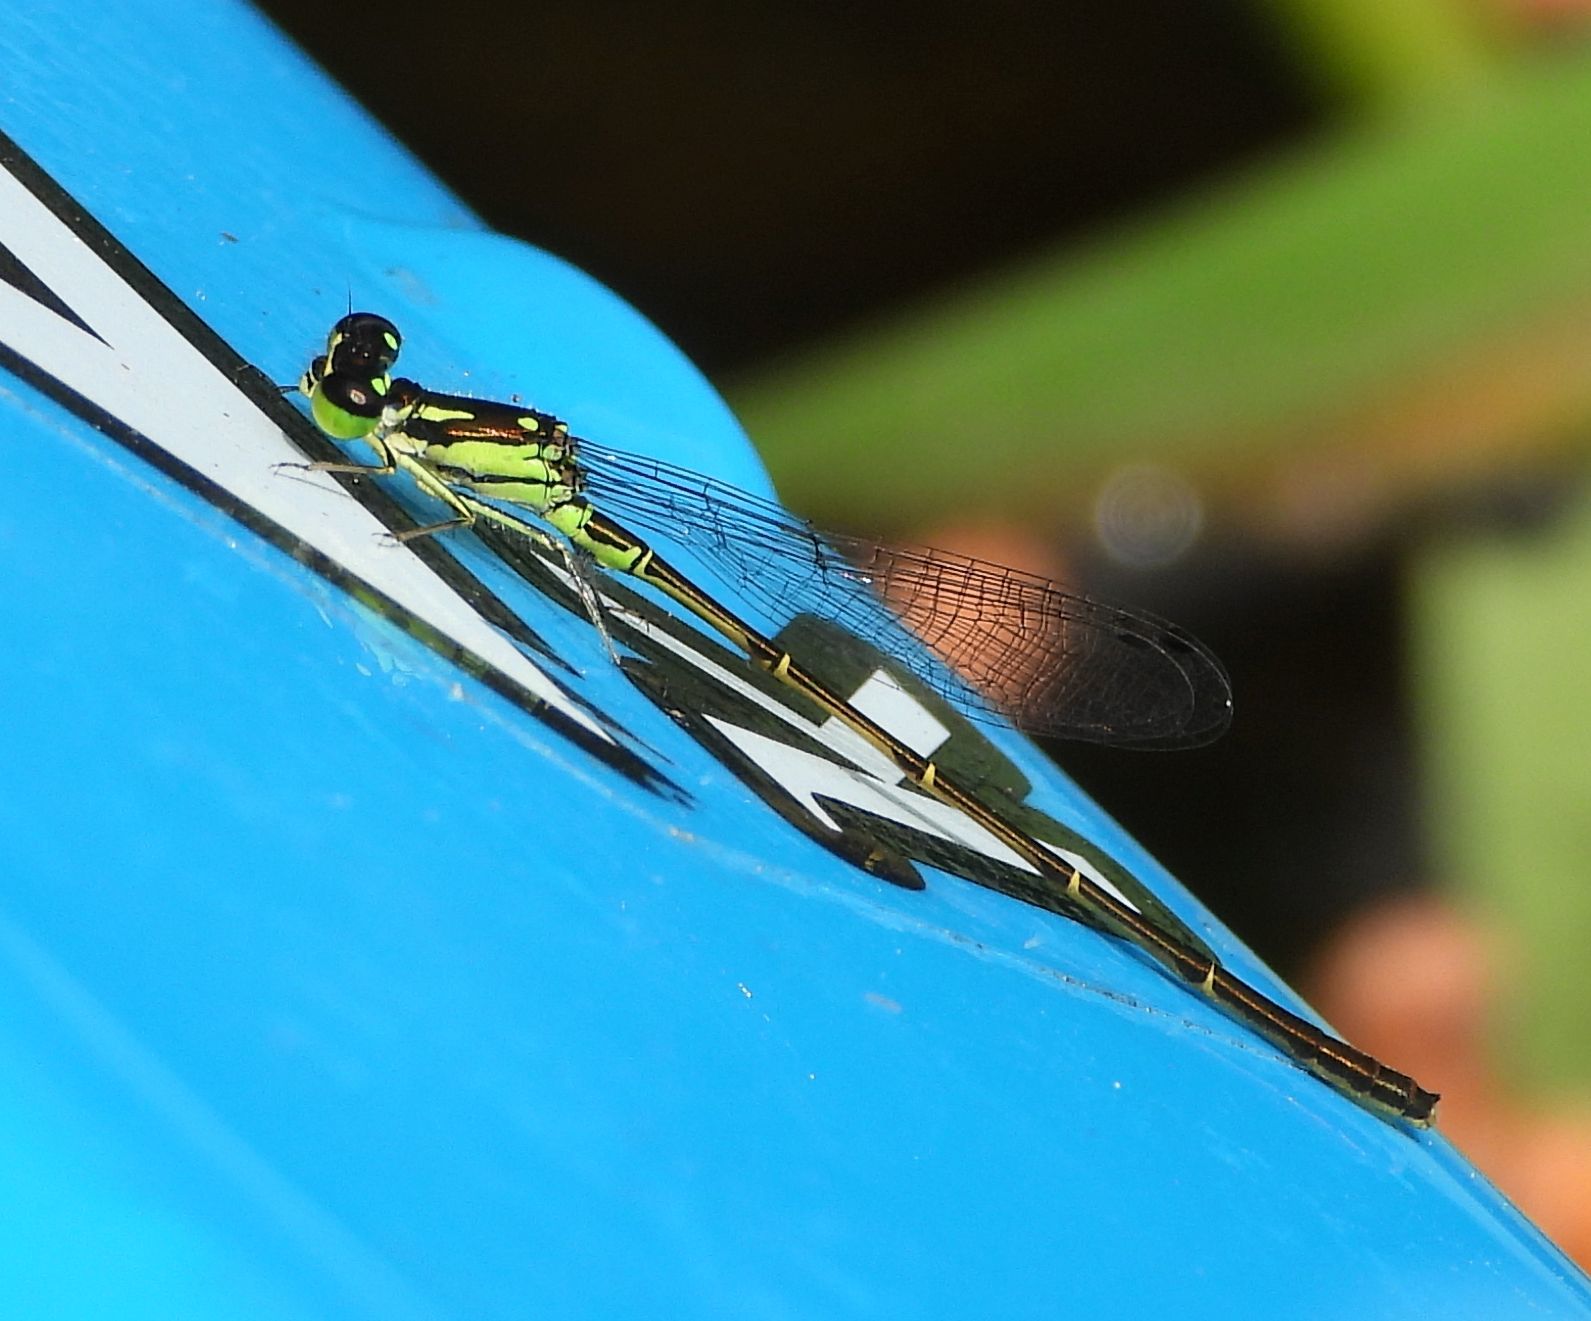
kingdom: Animalia
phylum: Arthropoda
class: Insecta
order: Odonata
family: Coenagrionidae
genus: Ischnura
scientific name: Ischnura posita
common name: Fragile forktail
